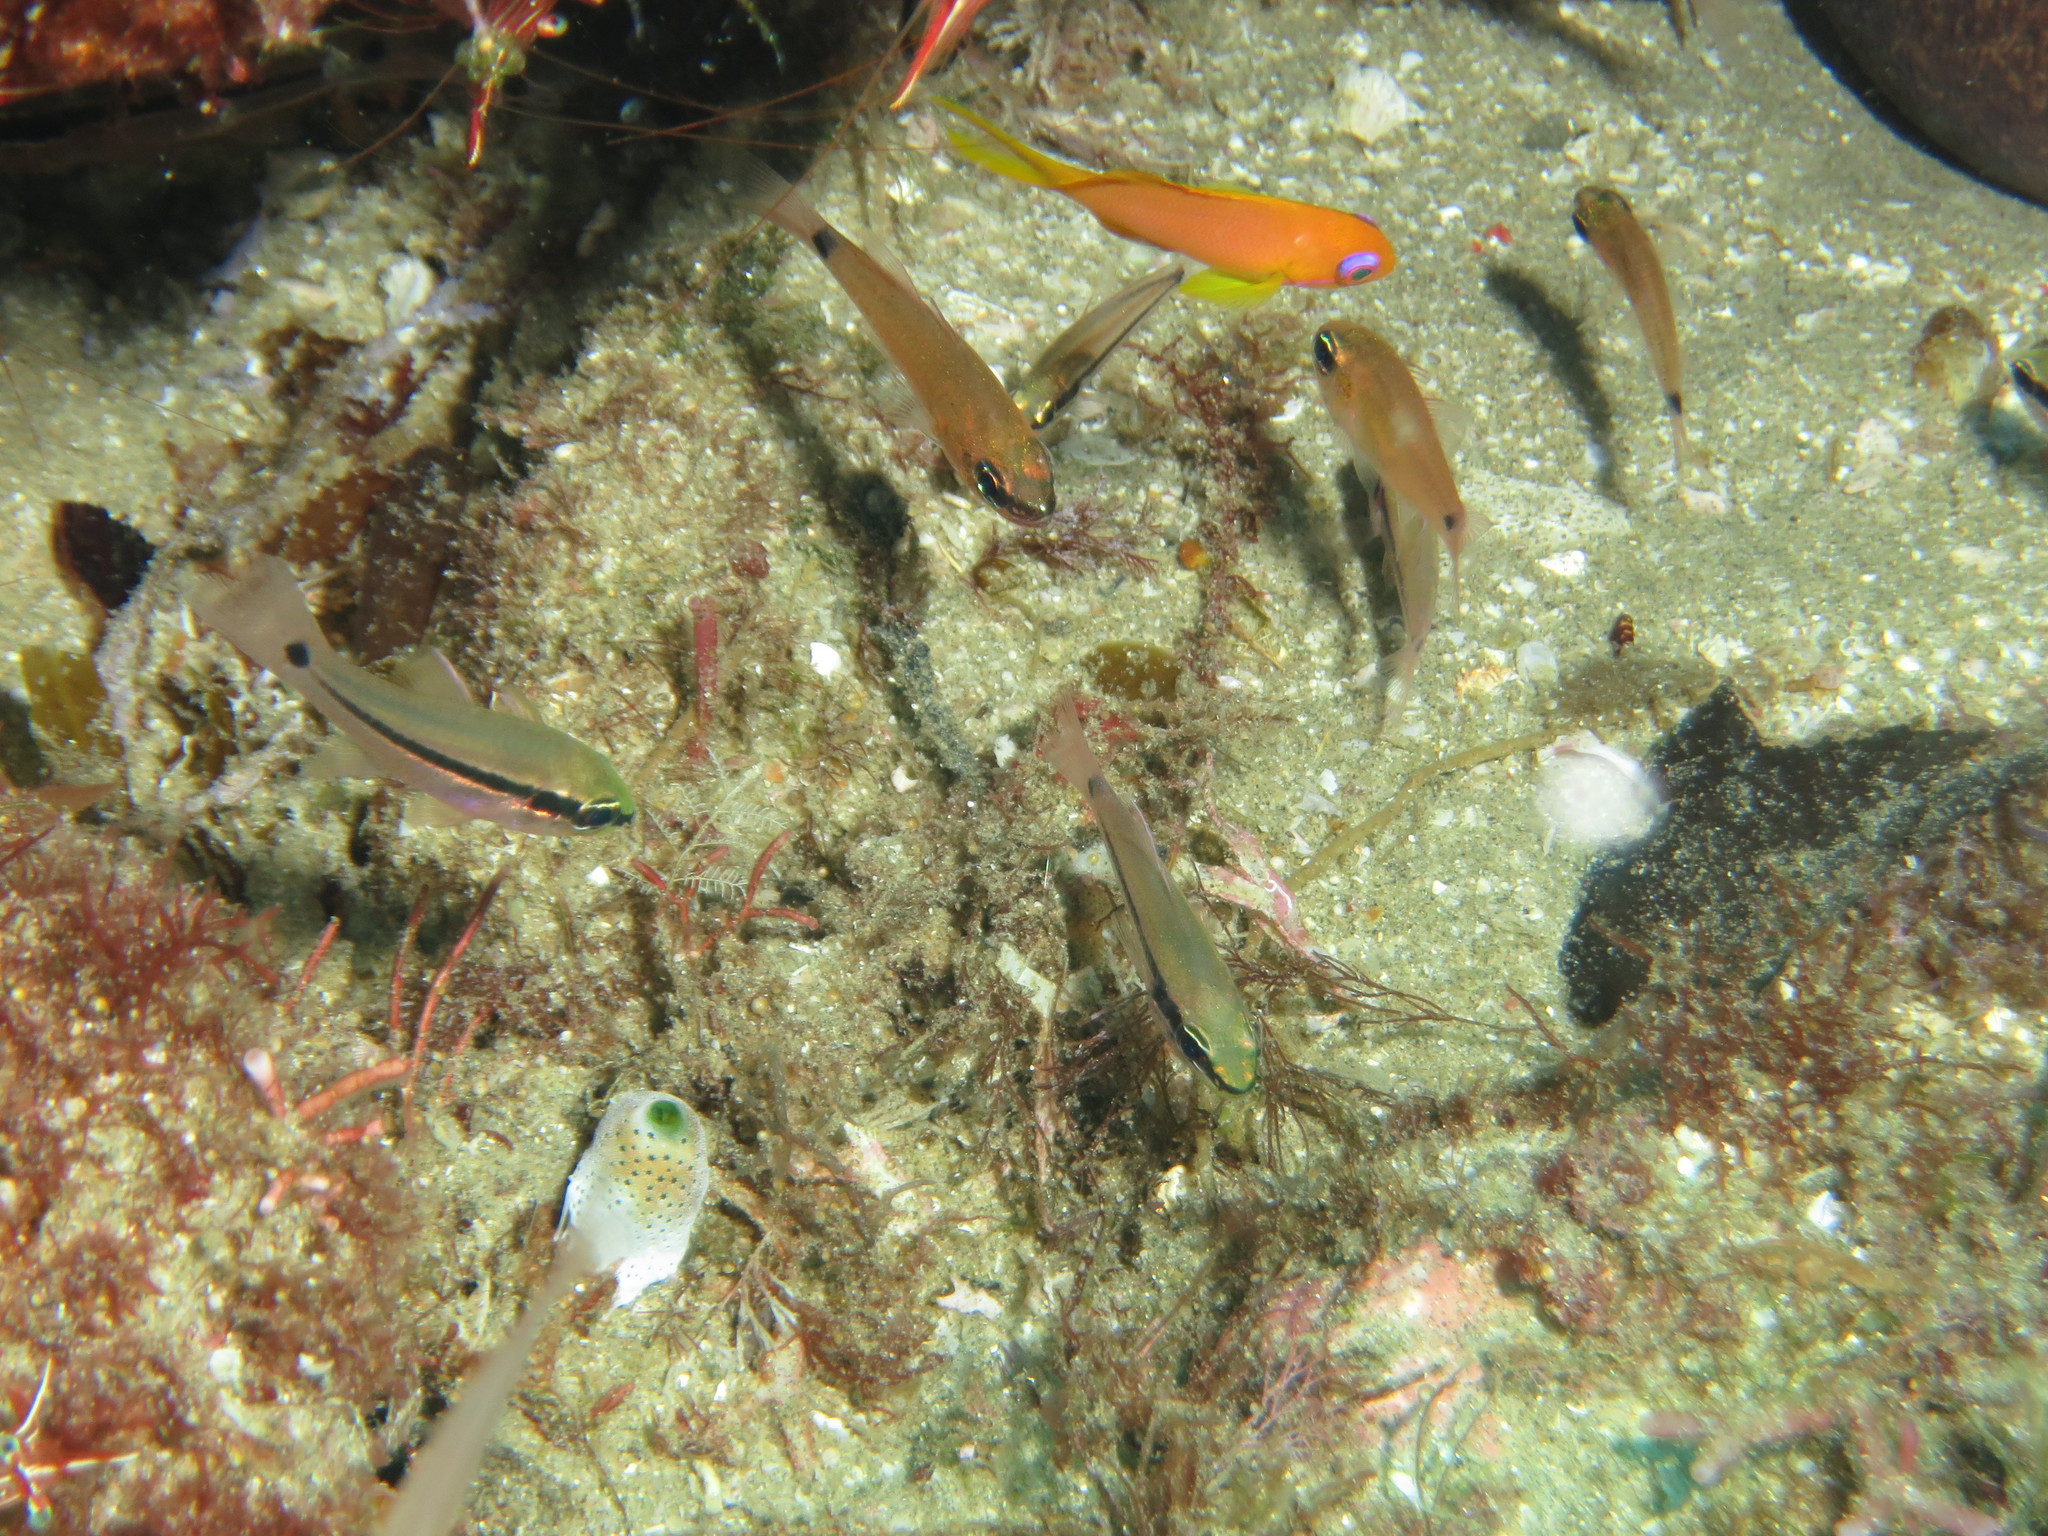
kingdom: Animalia
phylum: Chordata
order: Perciformes
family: Apogonidae
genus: Pristiapogon
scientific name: Pristiapogon fraenatus
